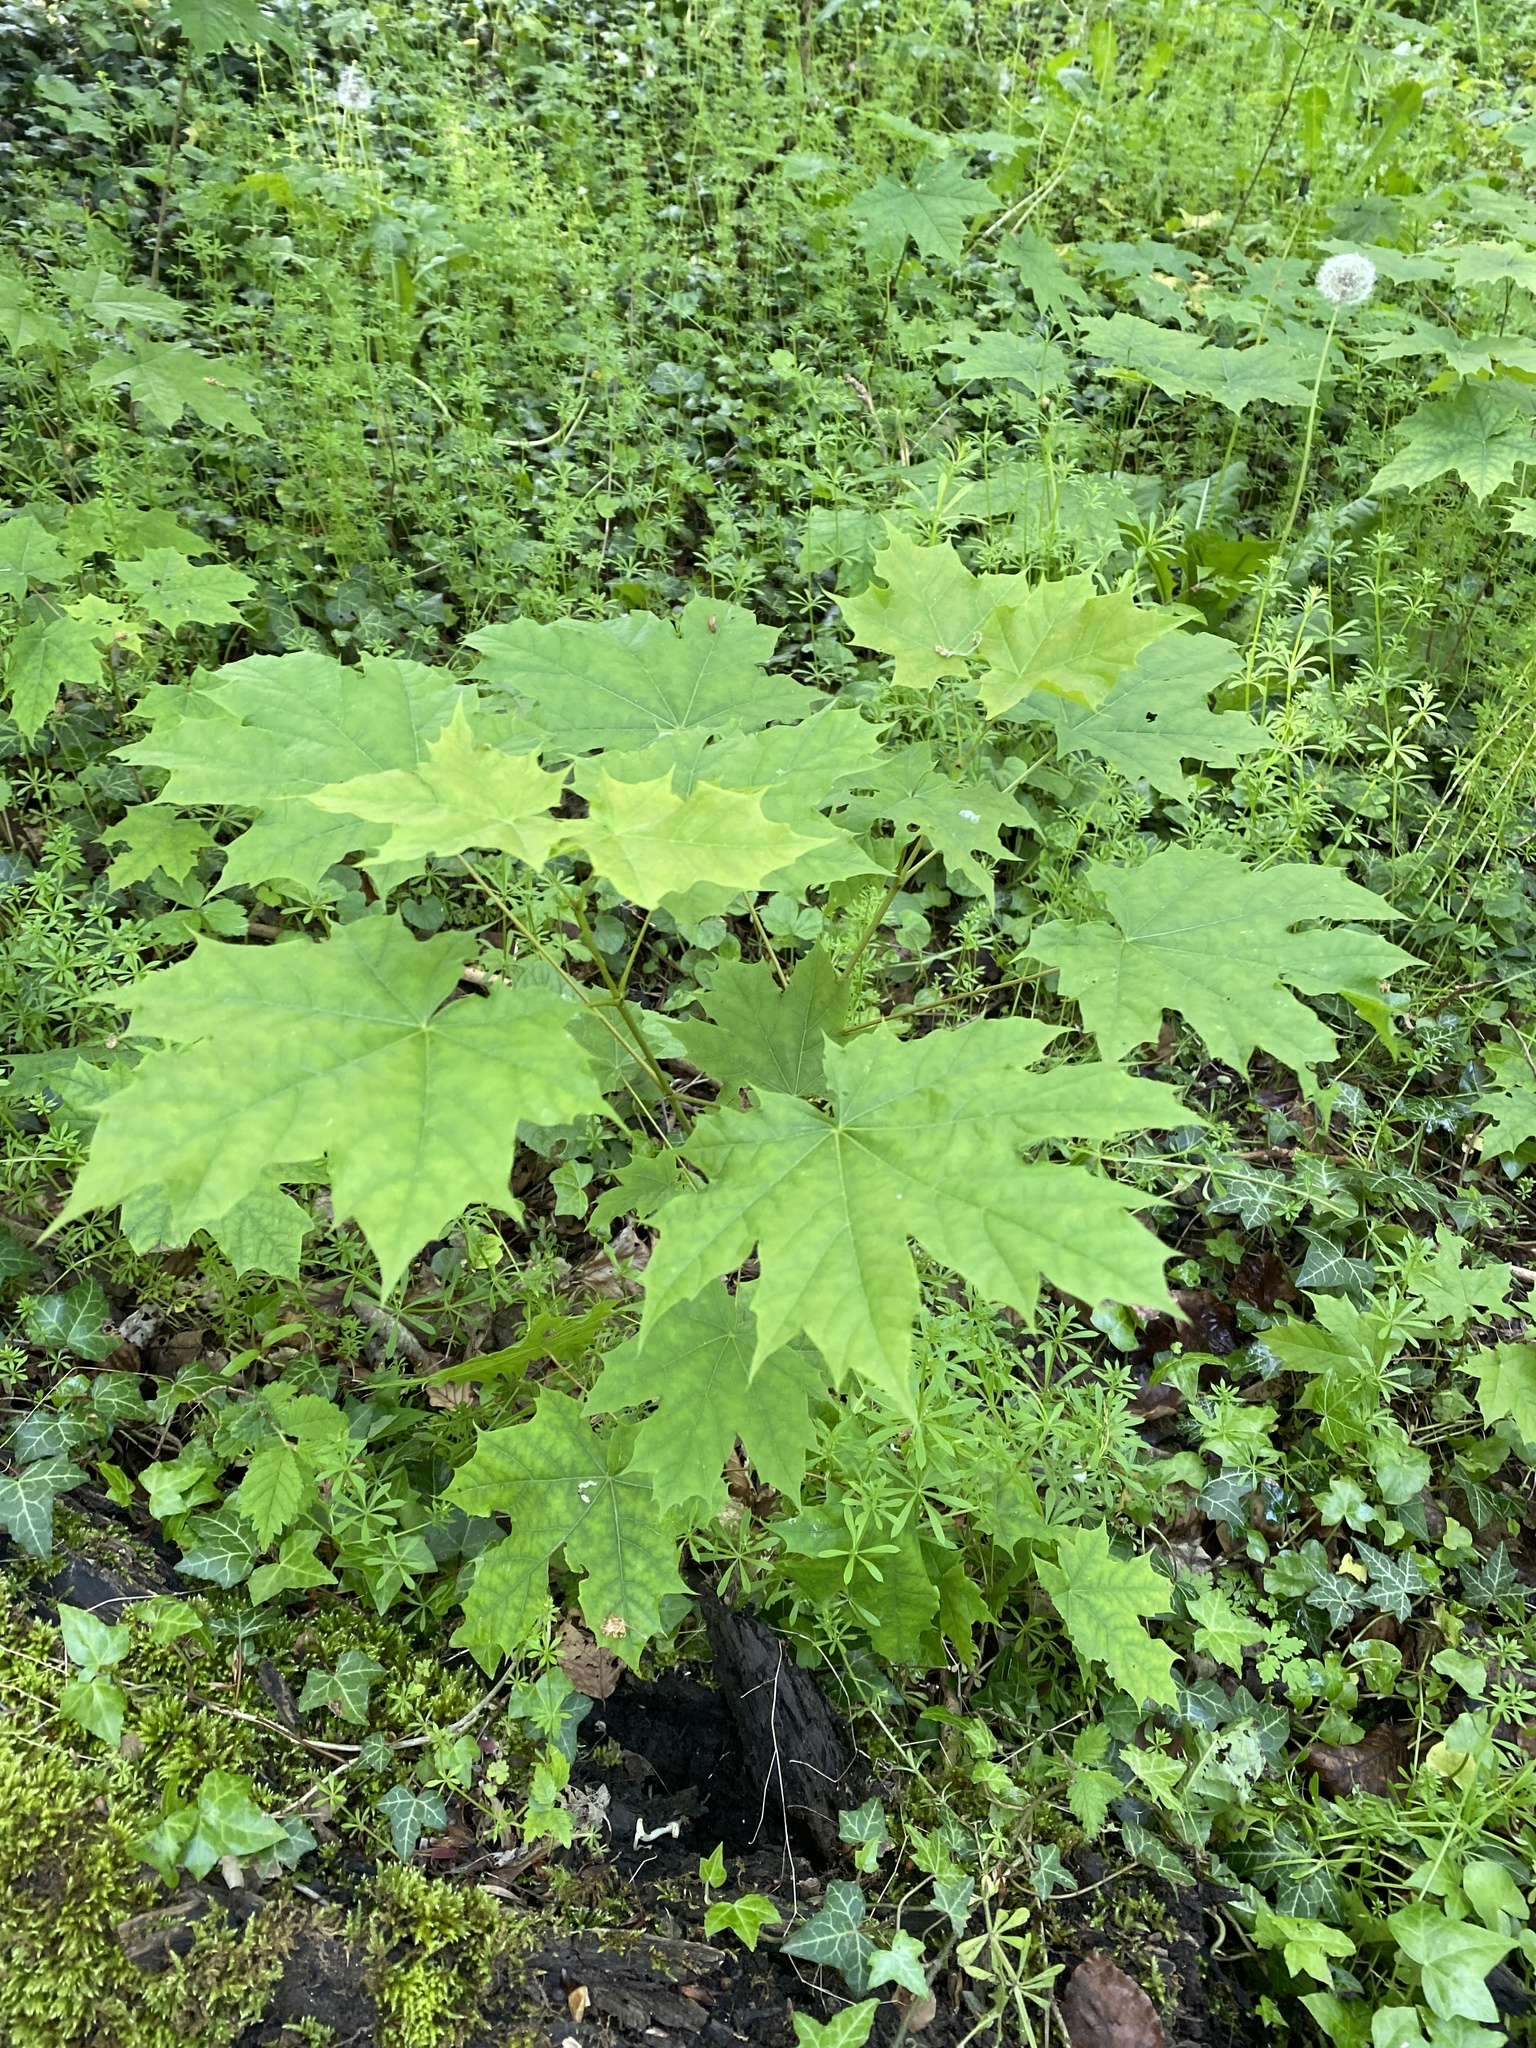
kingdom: Plantae
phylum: Tracheophyta
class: Magnoliopsida
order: Sapindales
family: Sapindaceae
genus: Acer
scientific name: Acer platanoides
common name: Norway maple
